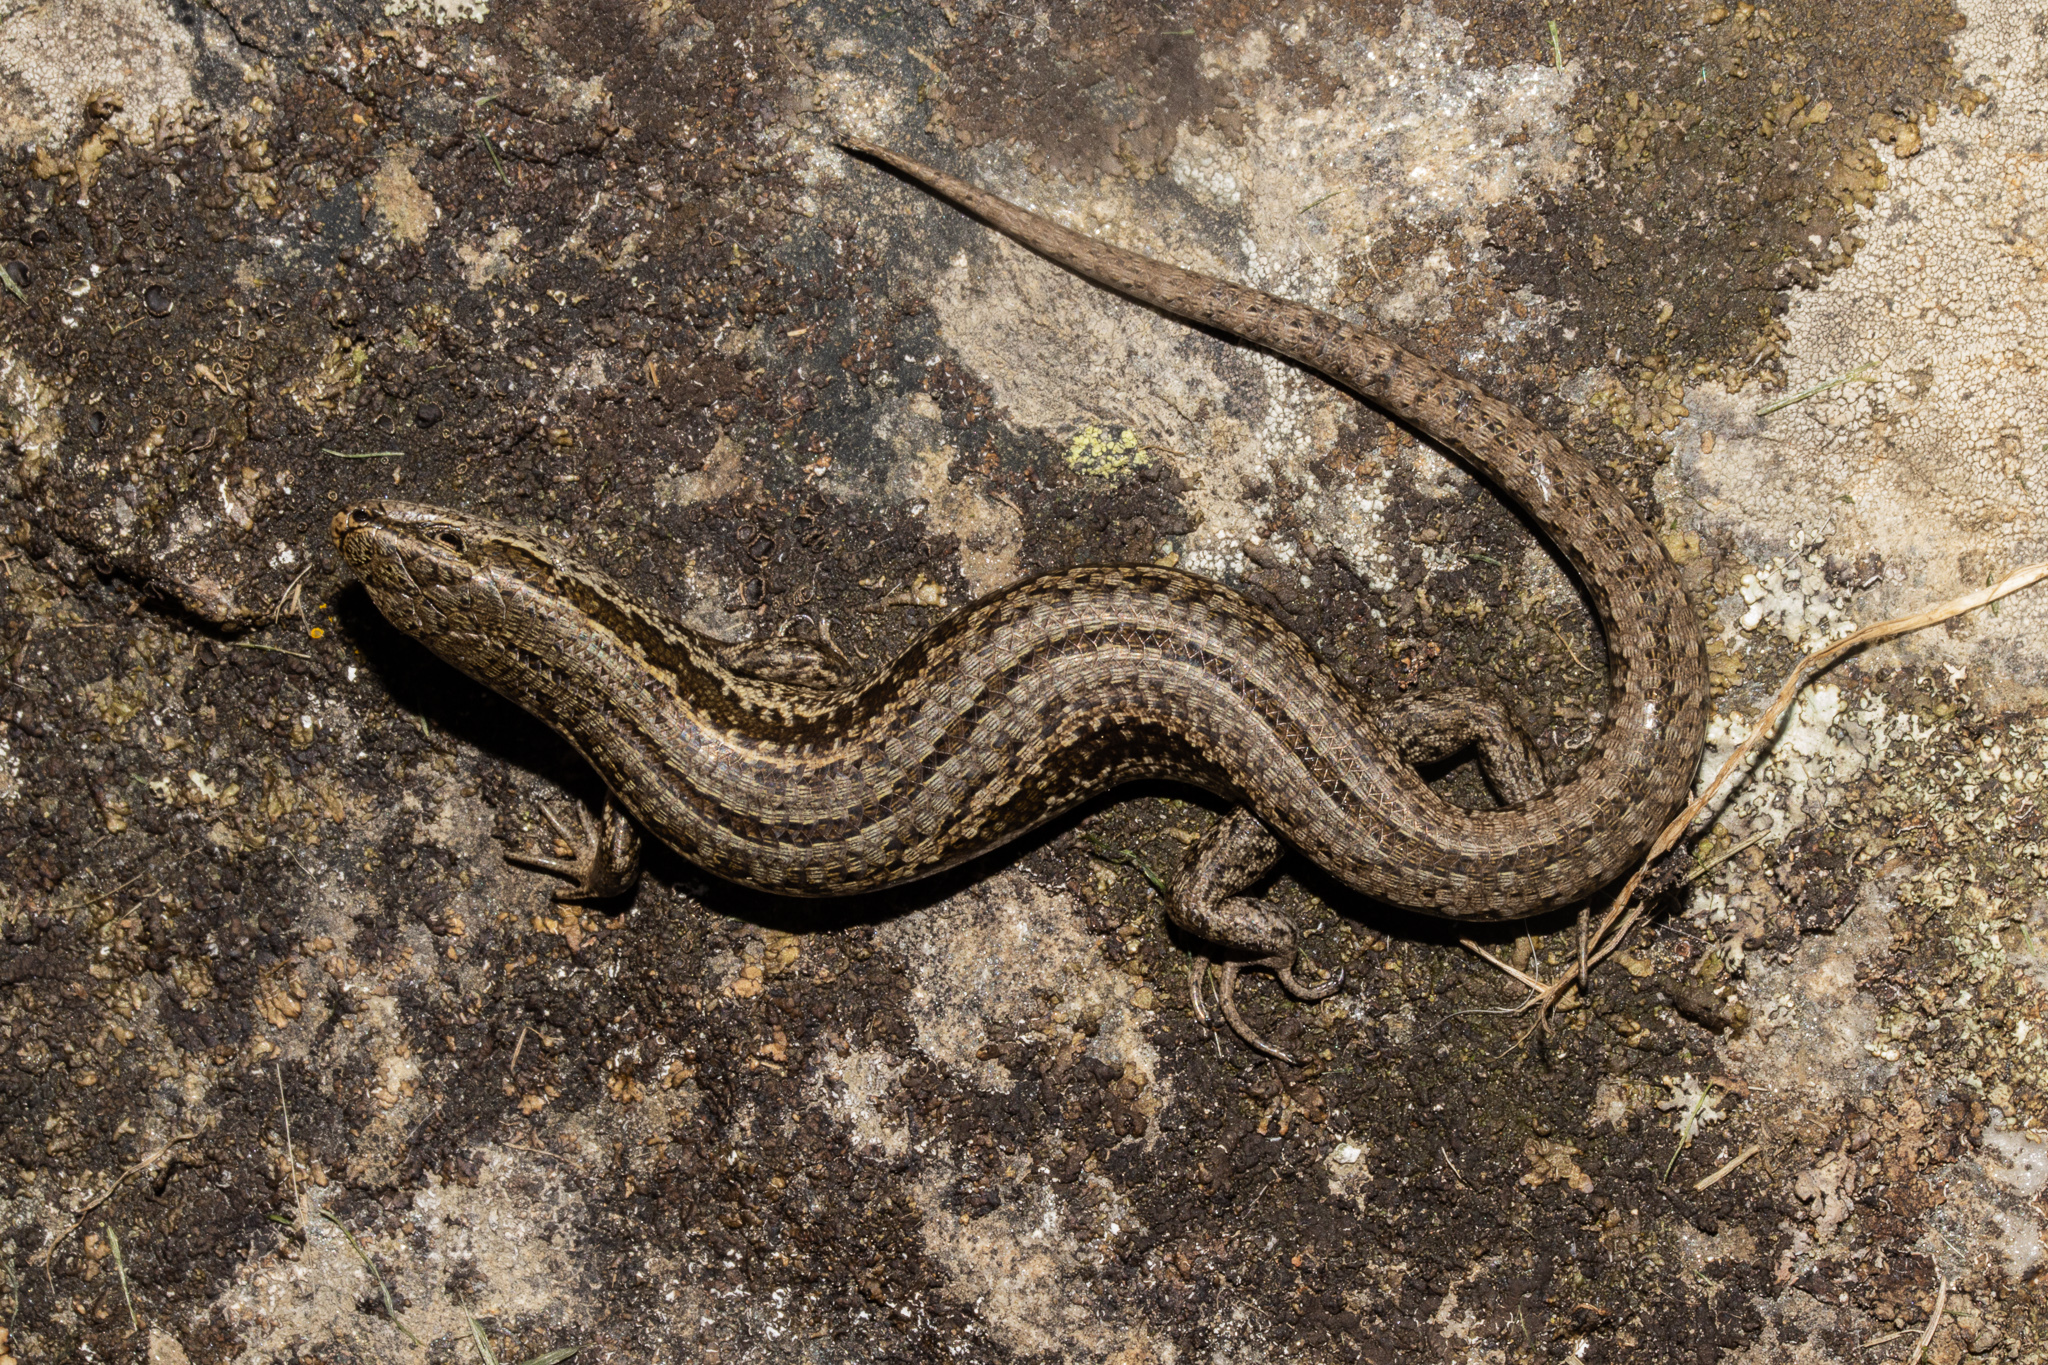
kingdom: Animalia
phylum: Chordata
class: Squamata
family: Scincidae
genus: Oligosoma
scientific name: Oligosoma maccanni
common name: Mccann’s skink
